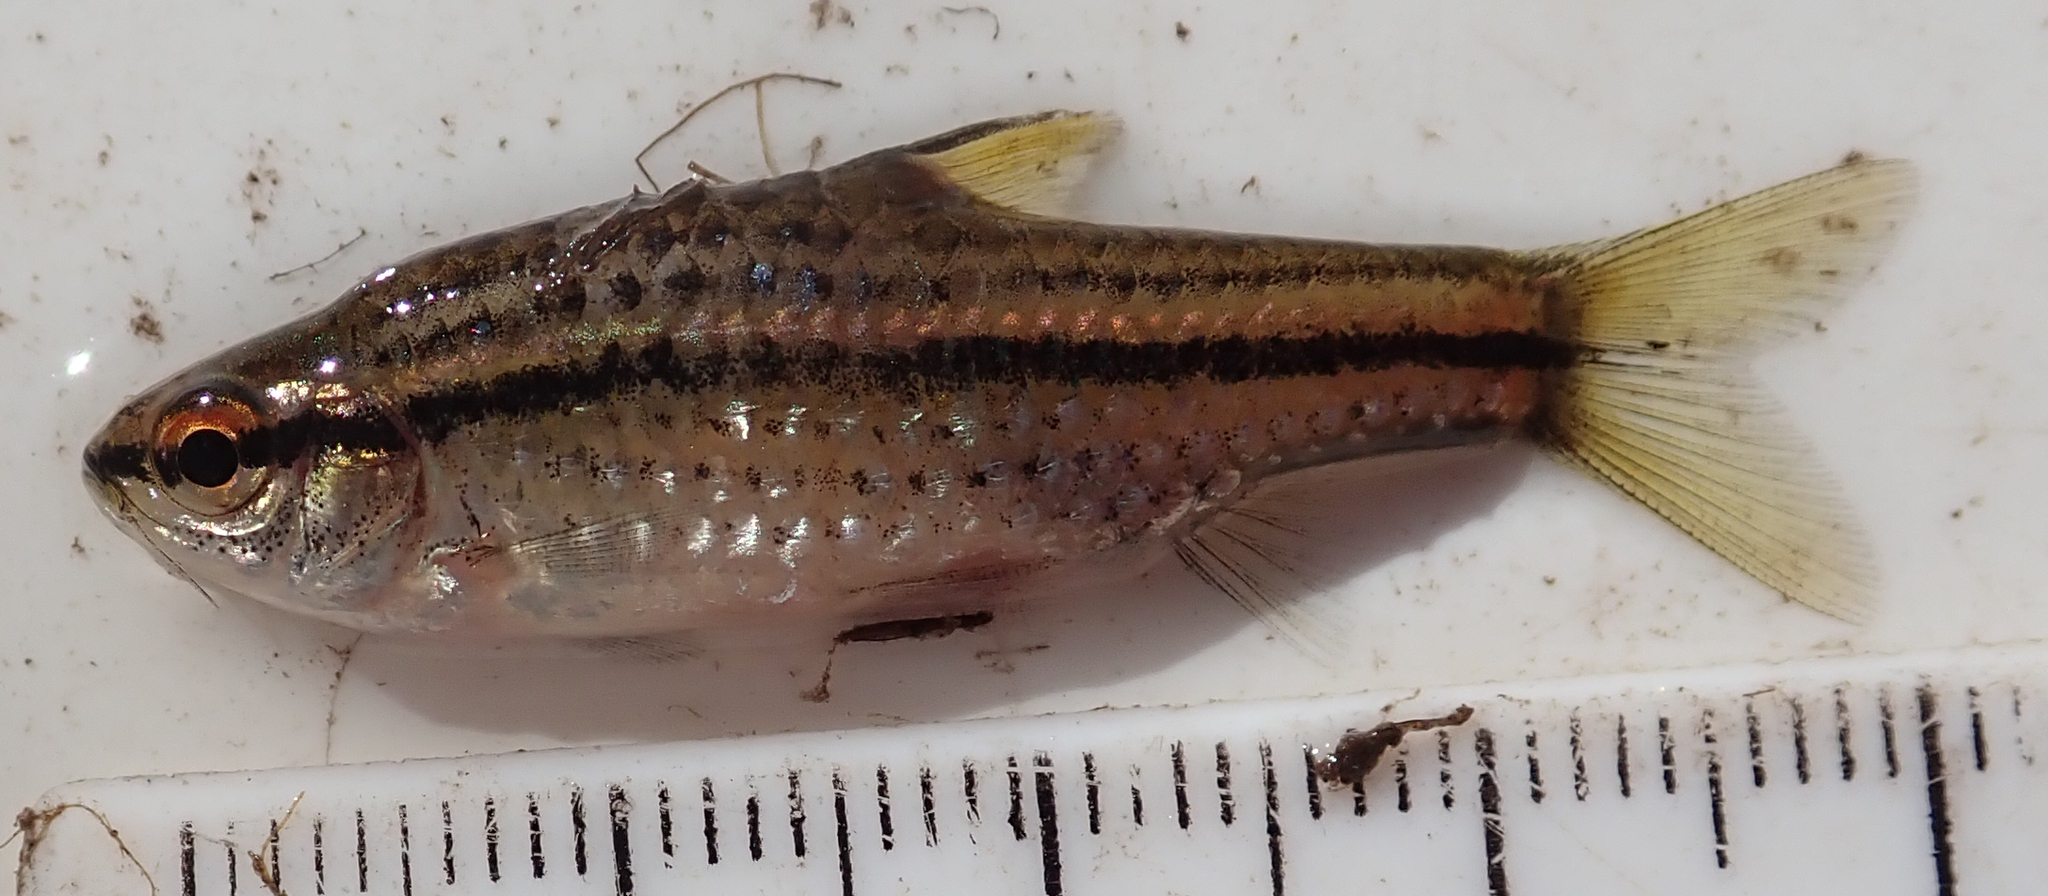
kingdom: Animalia
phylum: Chordata
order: Cypriniformes
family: Cyprinidae
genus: Enteromius
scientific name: Enteromius multilineatus
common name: Copperstripe barb
